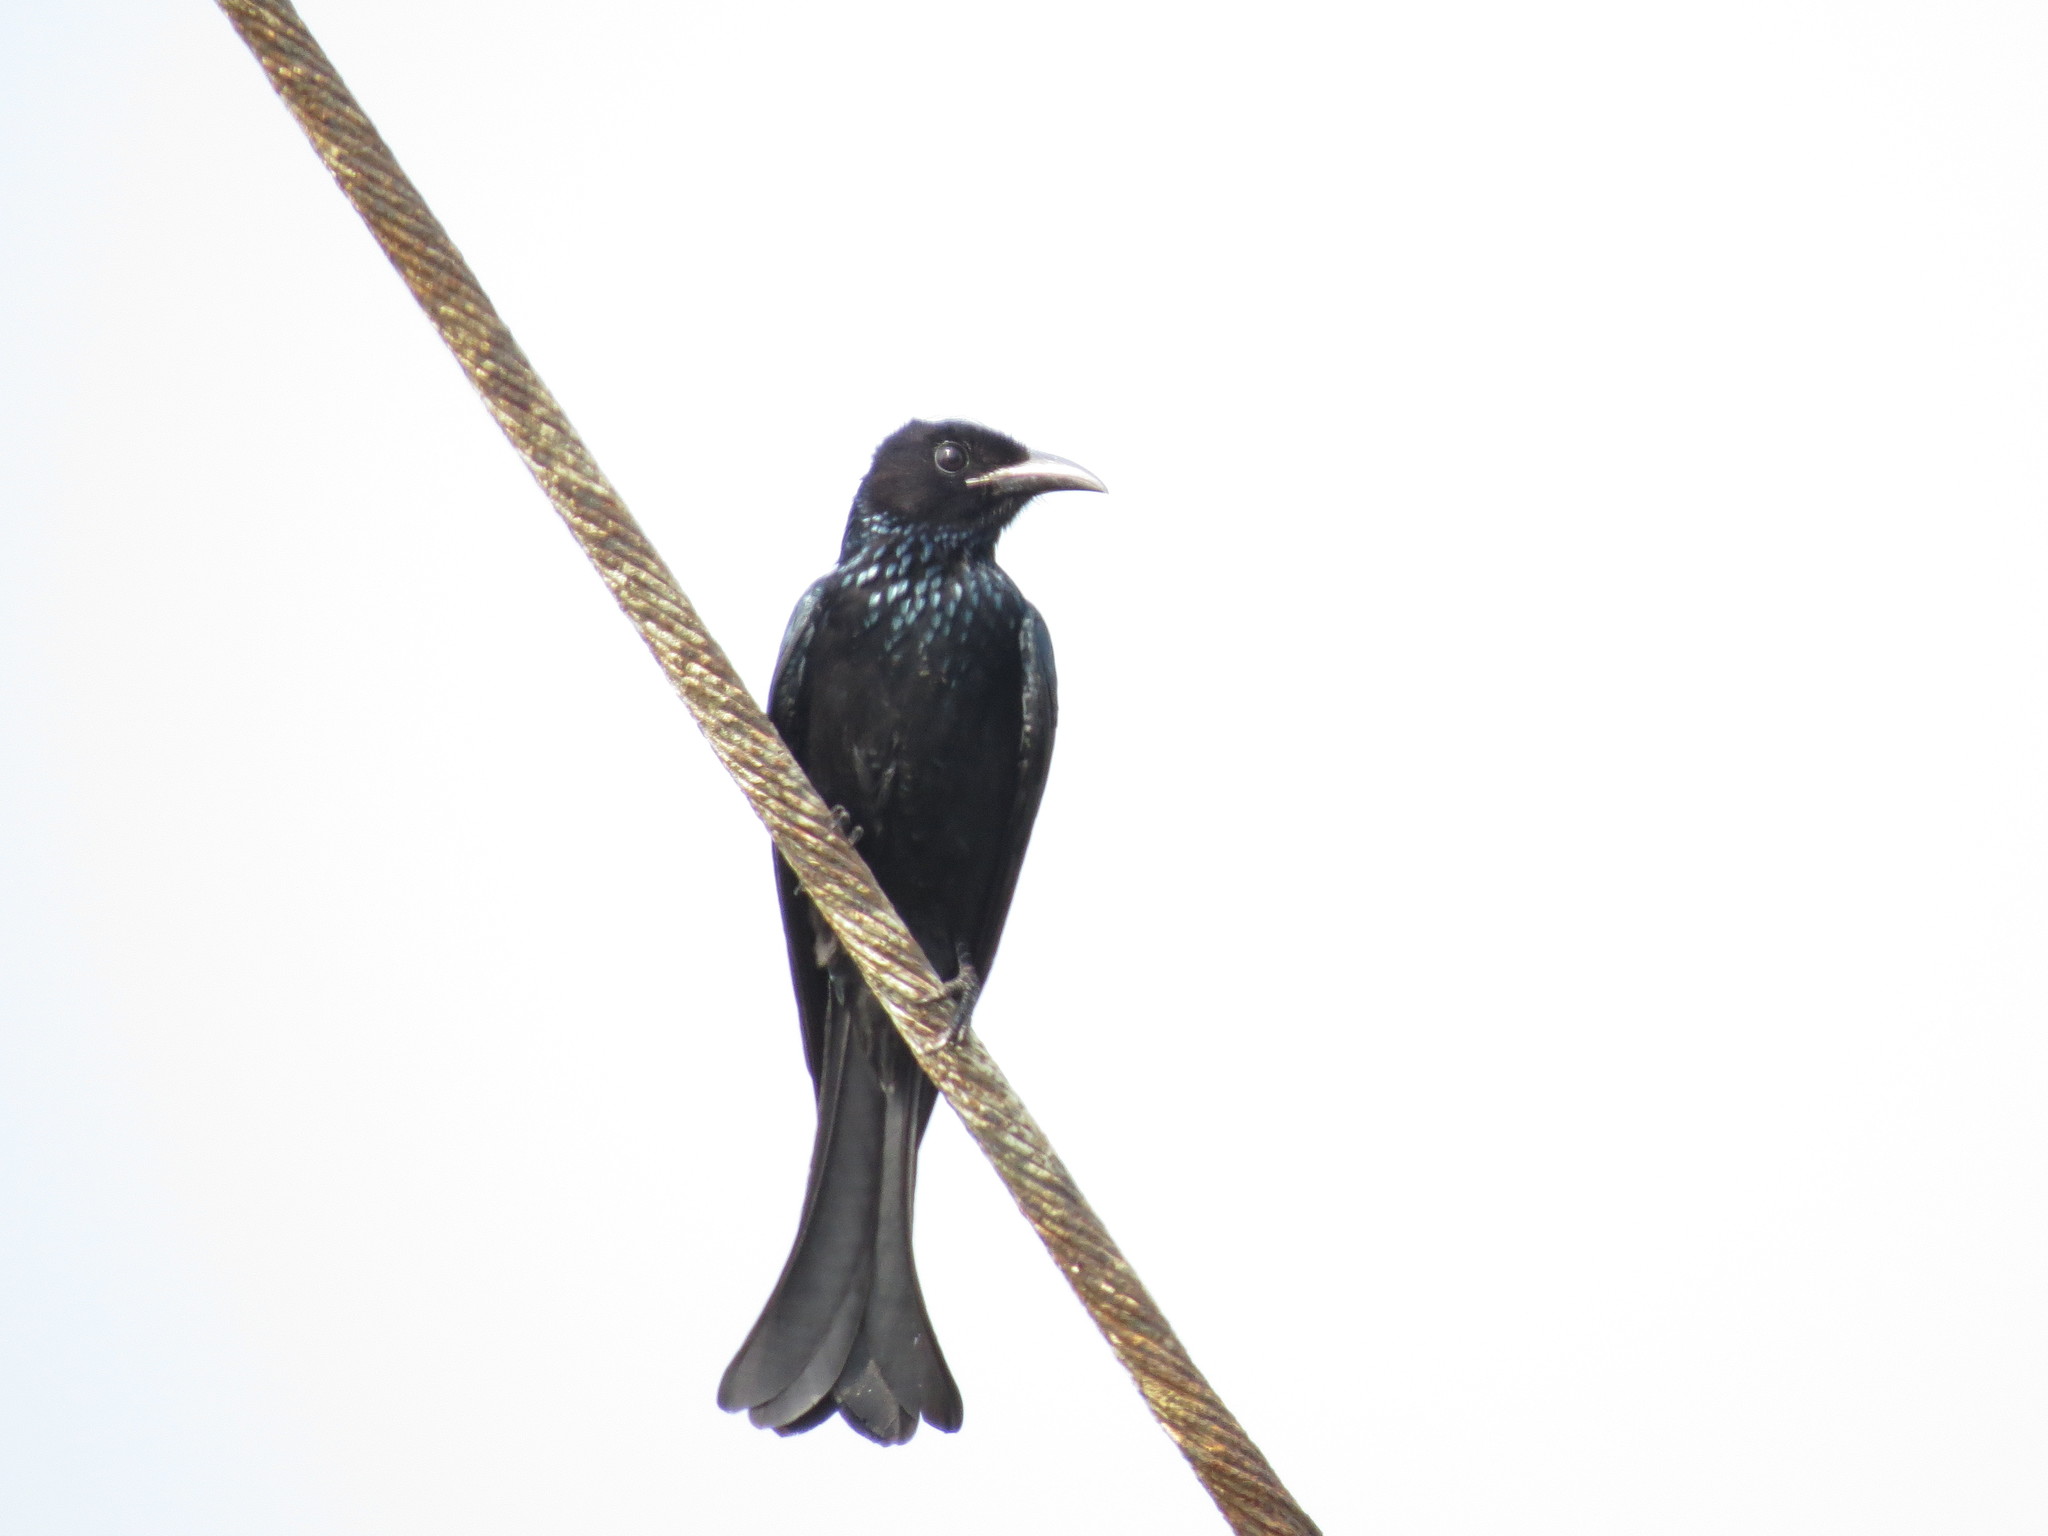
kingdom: Animalia
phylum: Chordata
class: Aves
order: Passeriformes
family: Dicruridae
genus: Dicrurus
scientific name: Dicrurus hottentottus
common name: Hair-crested drongo
